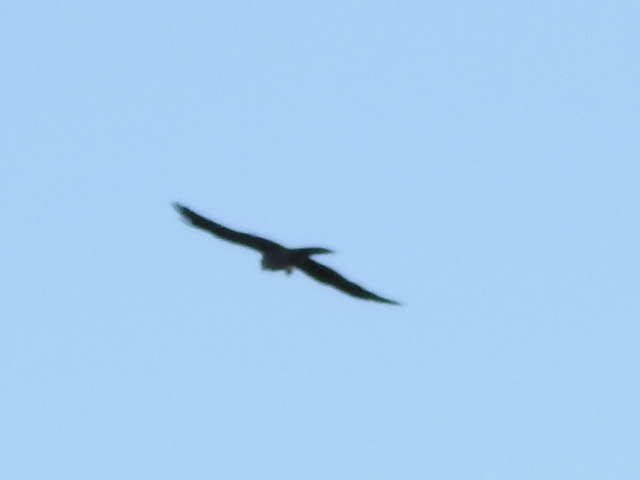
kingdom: Animalia
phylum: Chordata
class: Aves
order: Accipitriformes
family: Accipitridae
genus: Ictinia
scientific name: Ictinia mississippiensis
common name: Mississippi kite
